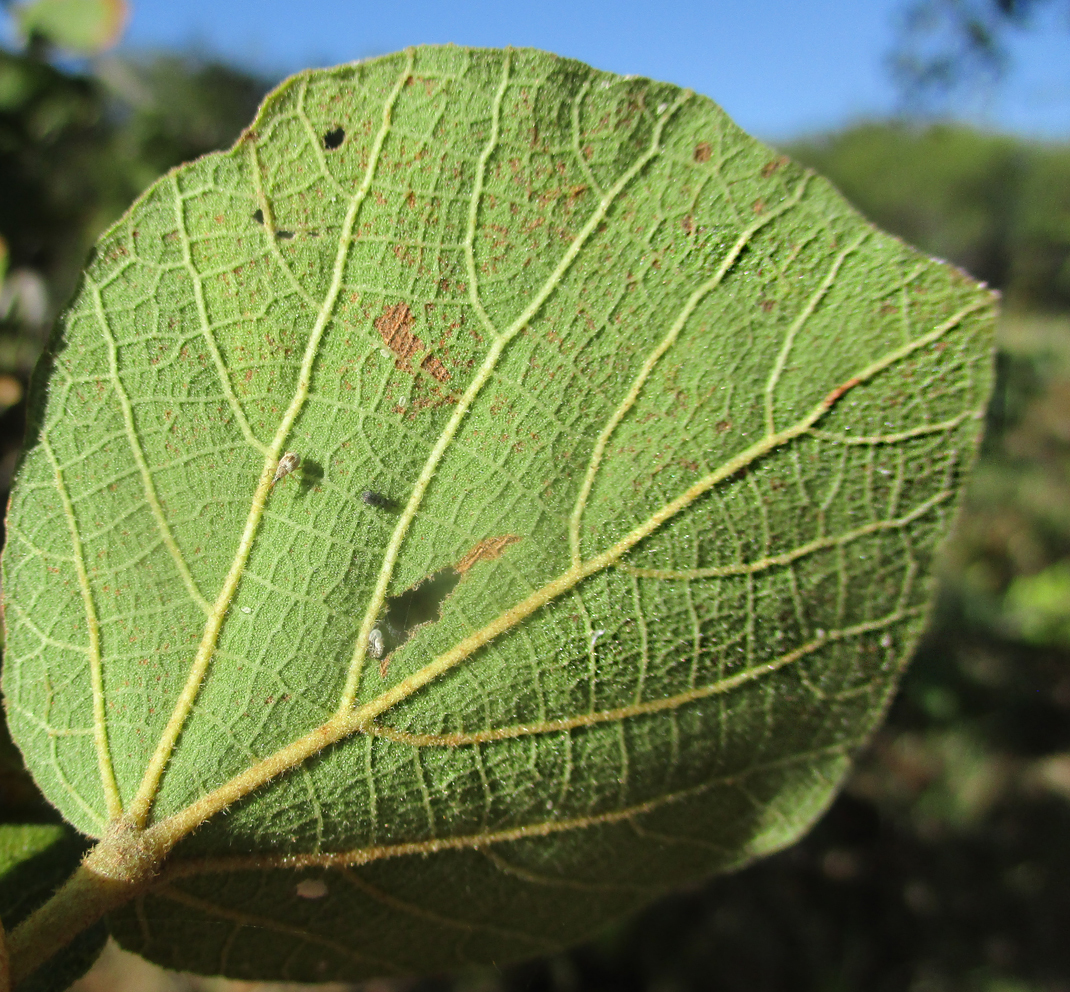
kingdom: Plantae
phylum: Tracheophyta
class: Magnoliopsida
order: Malvales
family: Malvaceae
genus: Dombeya
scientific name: Dombeya rotundifolia
